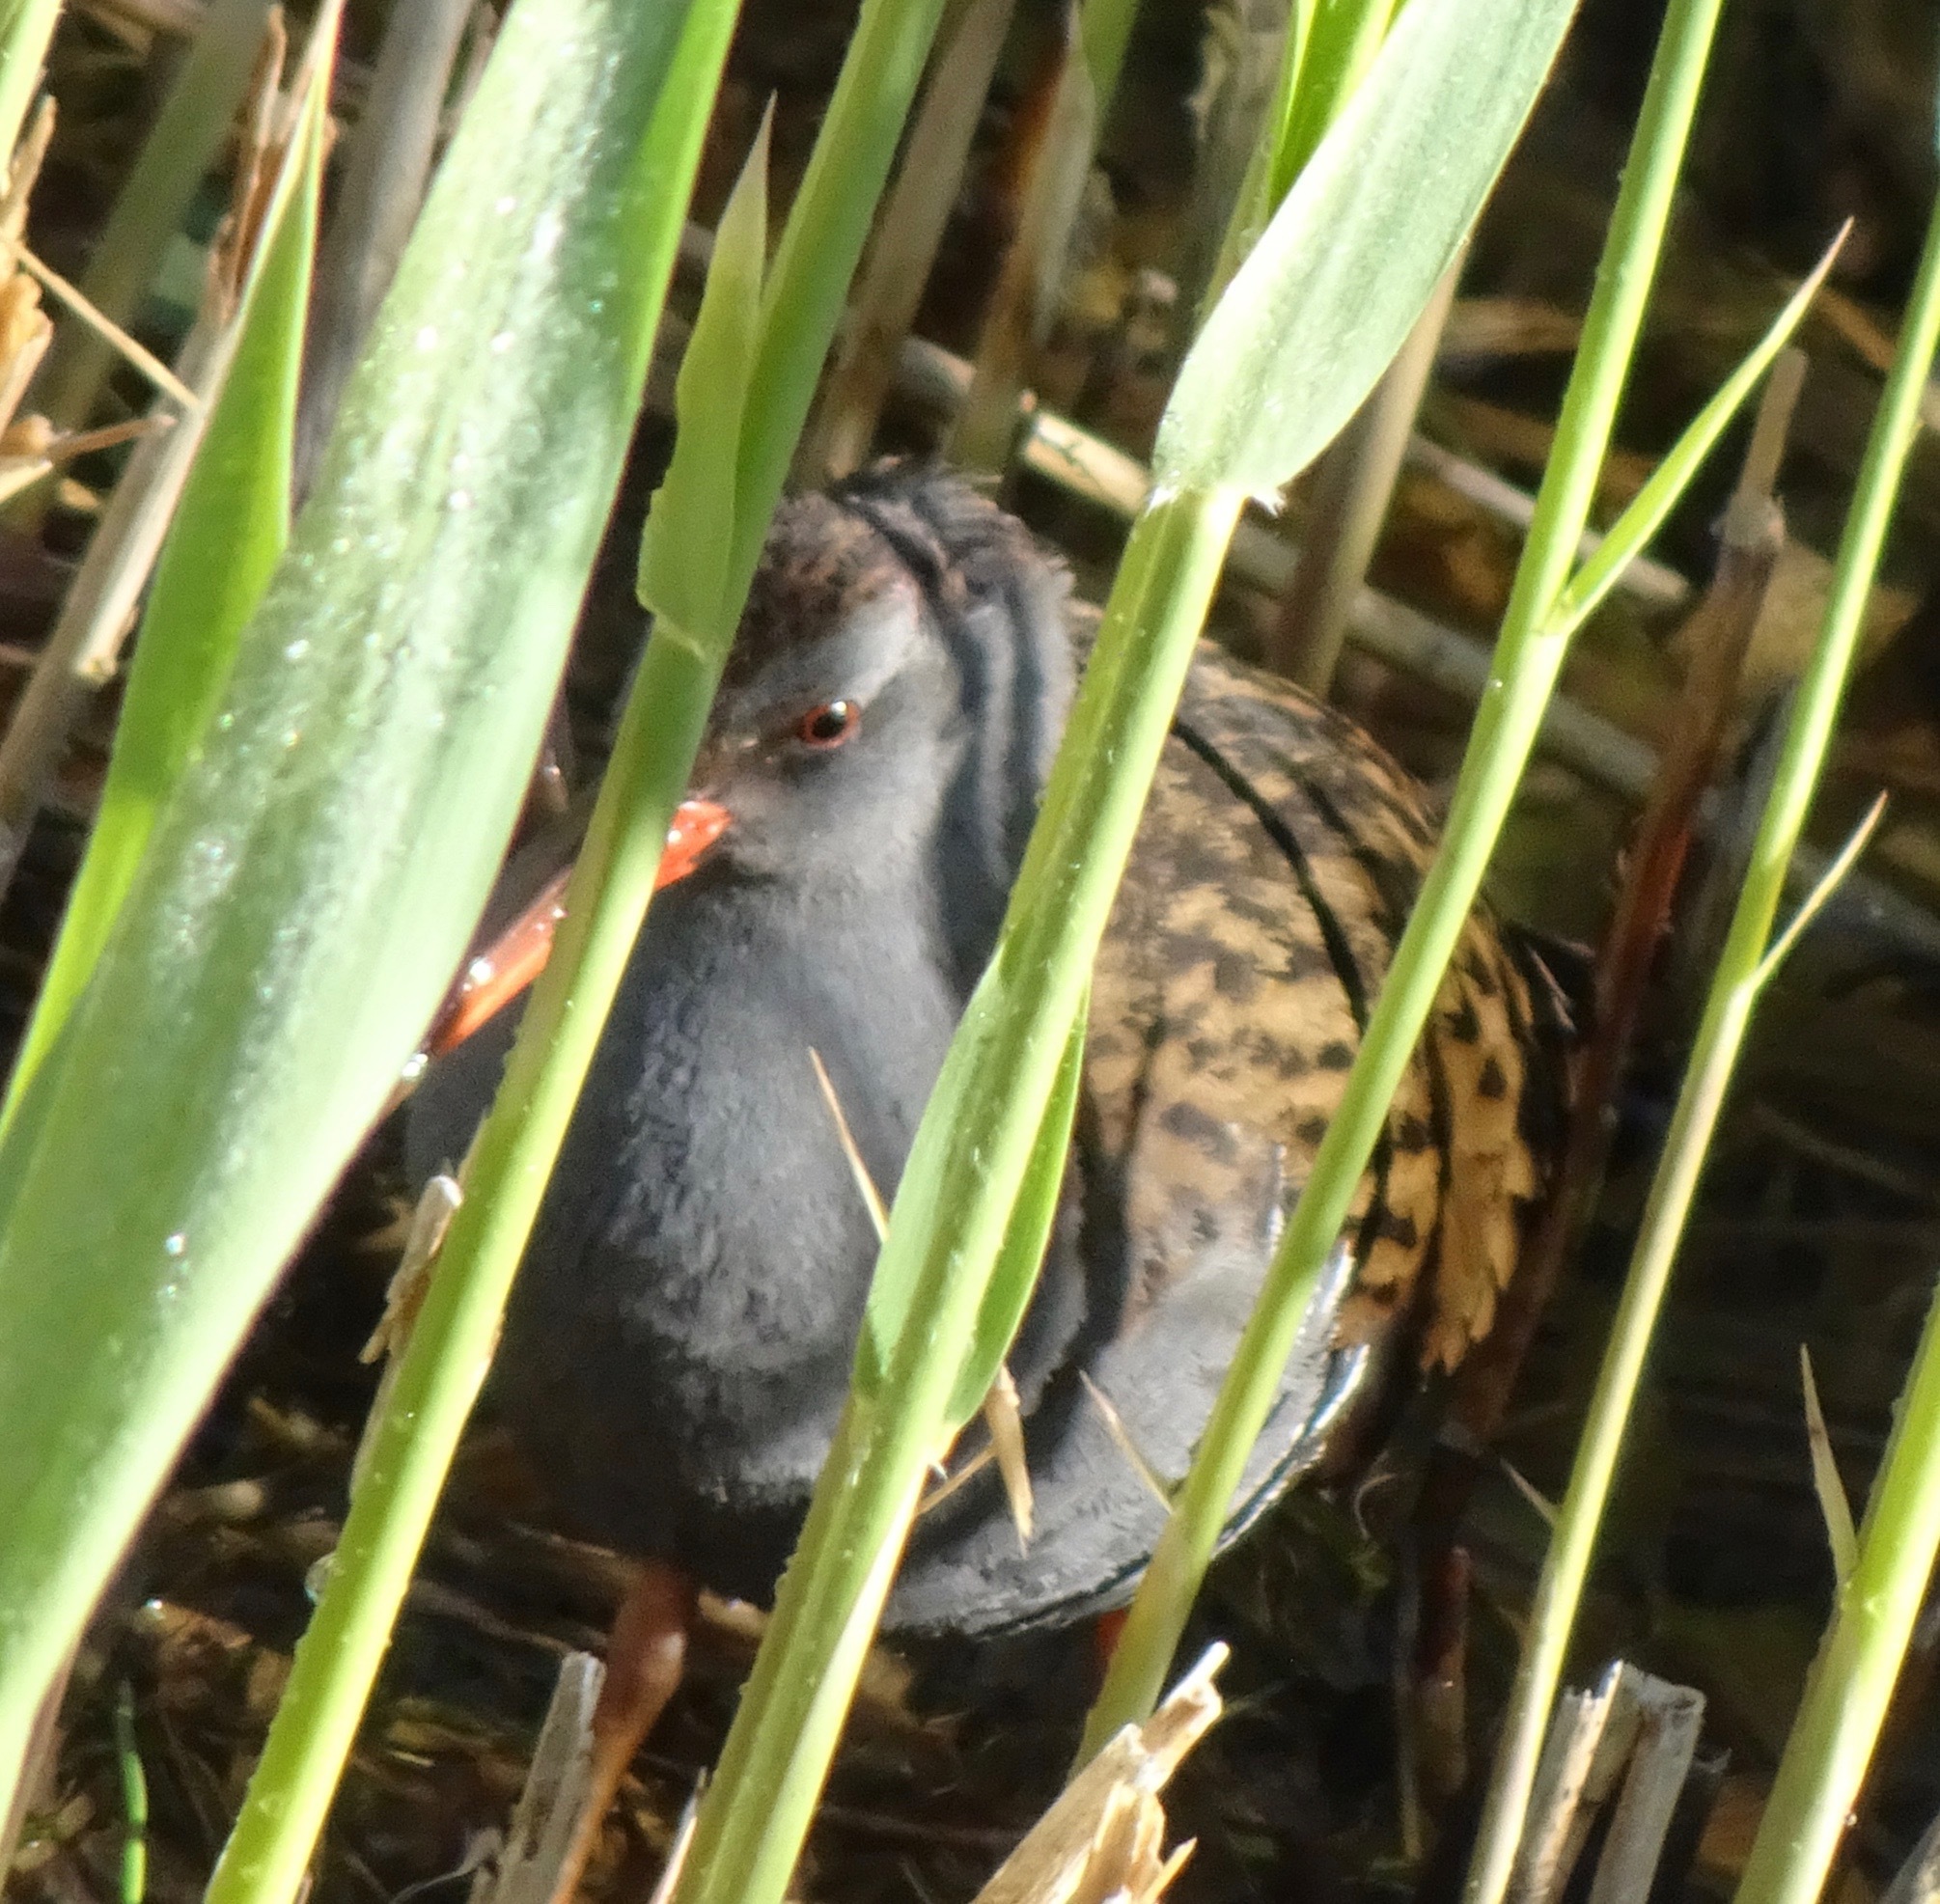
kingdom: Animalia
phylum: Chordata
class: Aves
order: Gruiformes
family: Rallidae
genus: Rallus
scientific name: Rallus aquaticus
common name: Water rail
